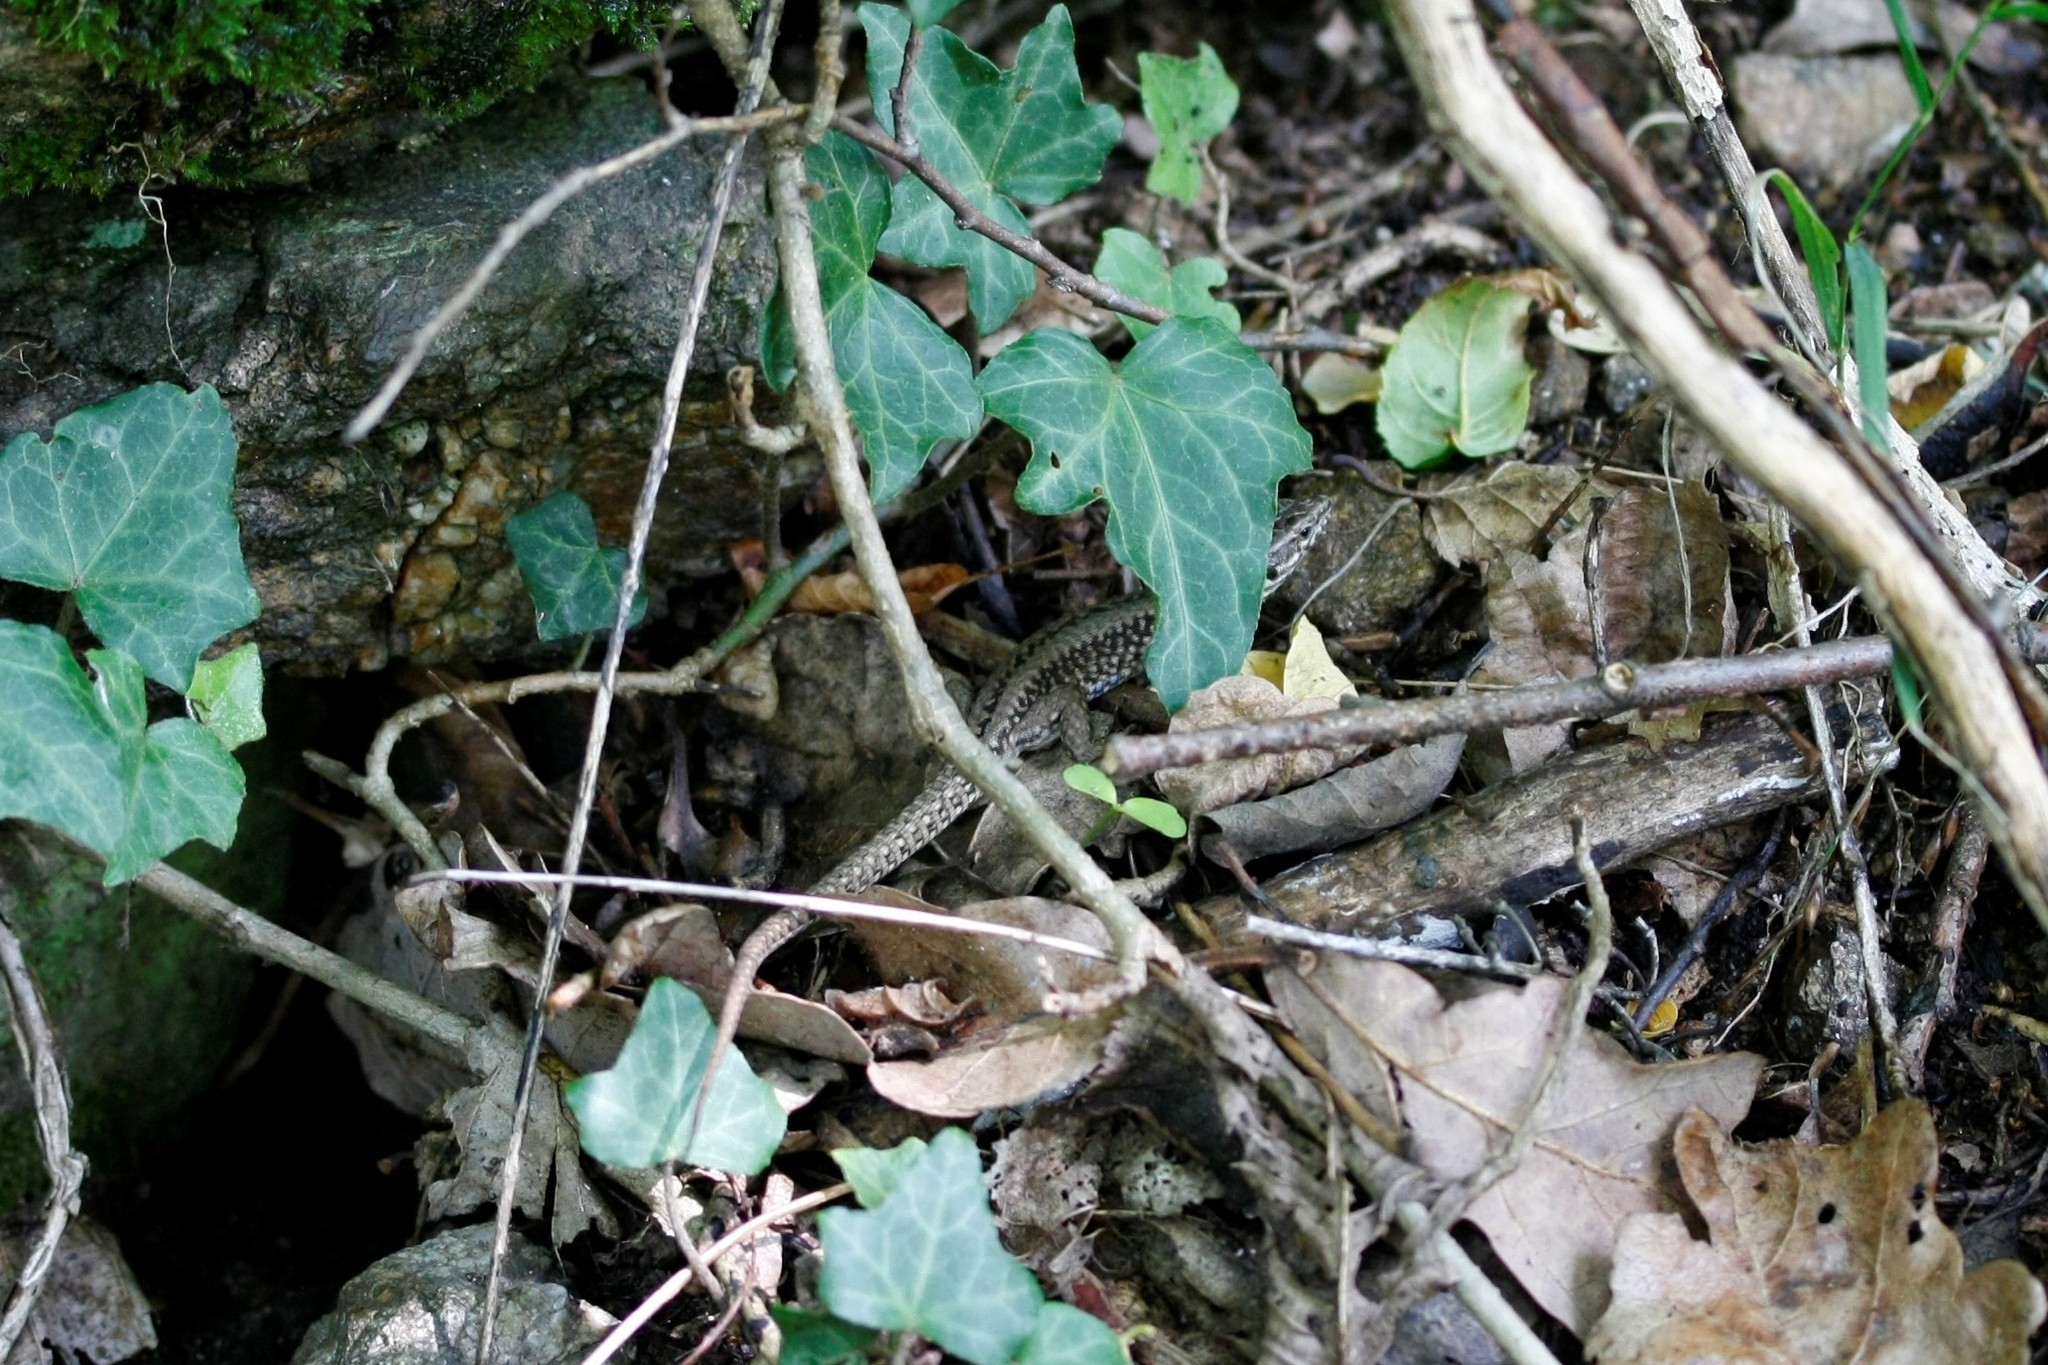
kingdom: Animalia
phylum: Chordata
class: Squamata
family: Lacertidae
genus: Podarcis
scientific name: Podarcis muralis
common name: Common wall lizard
